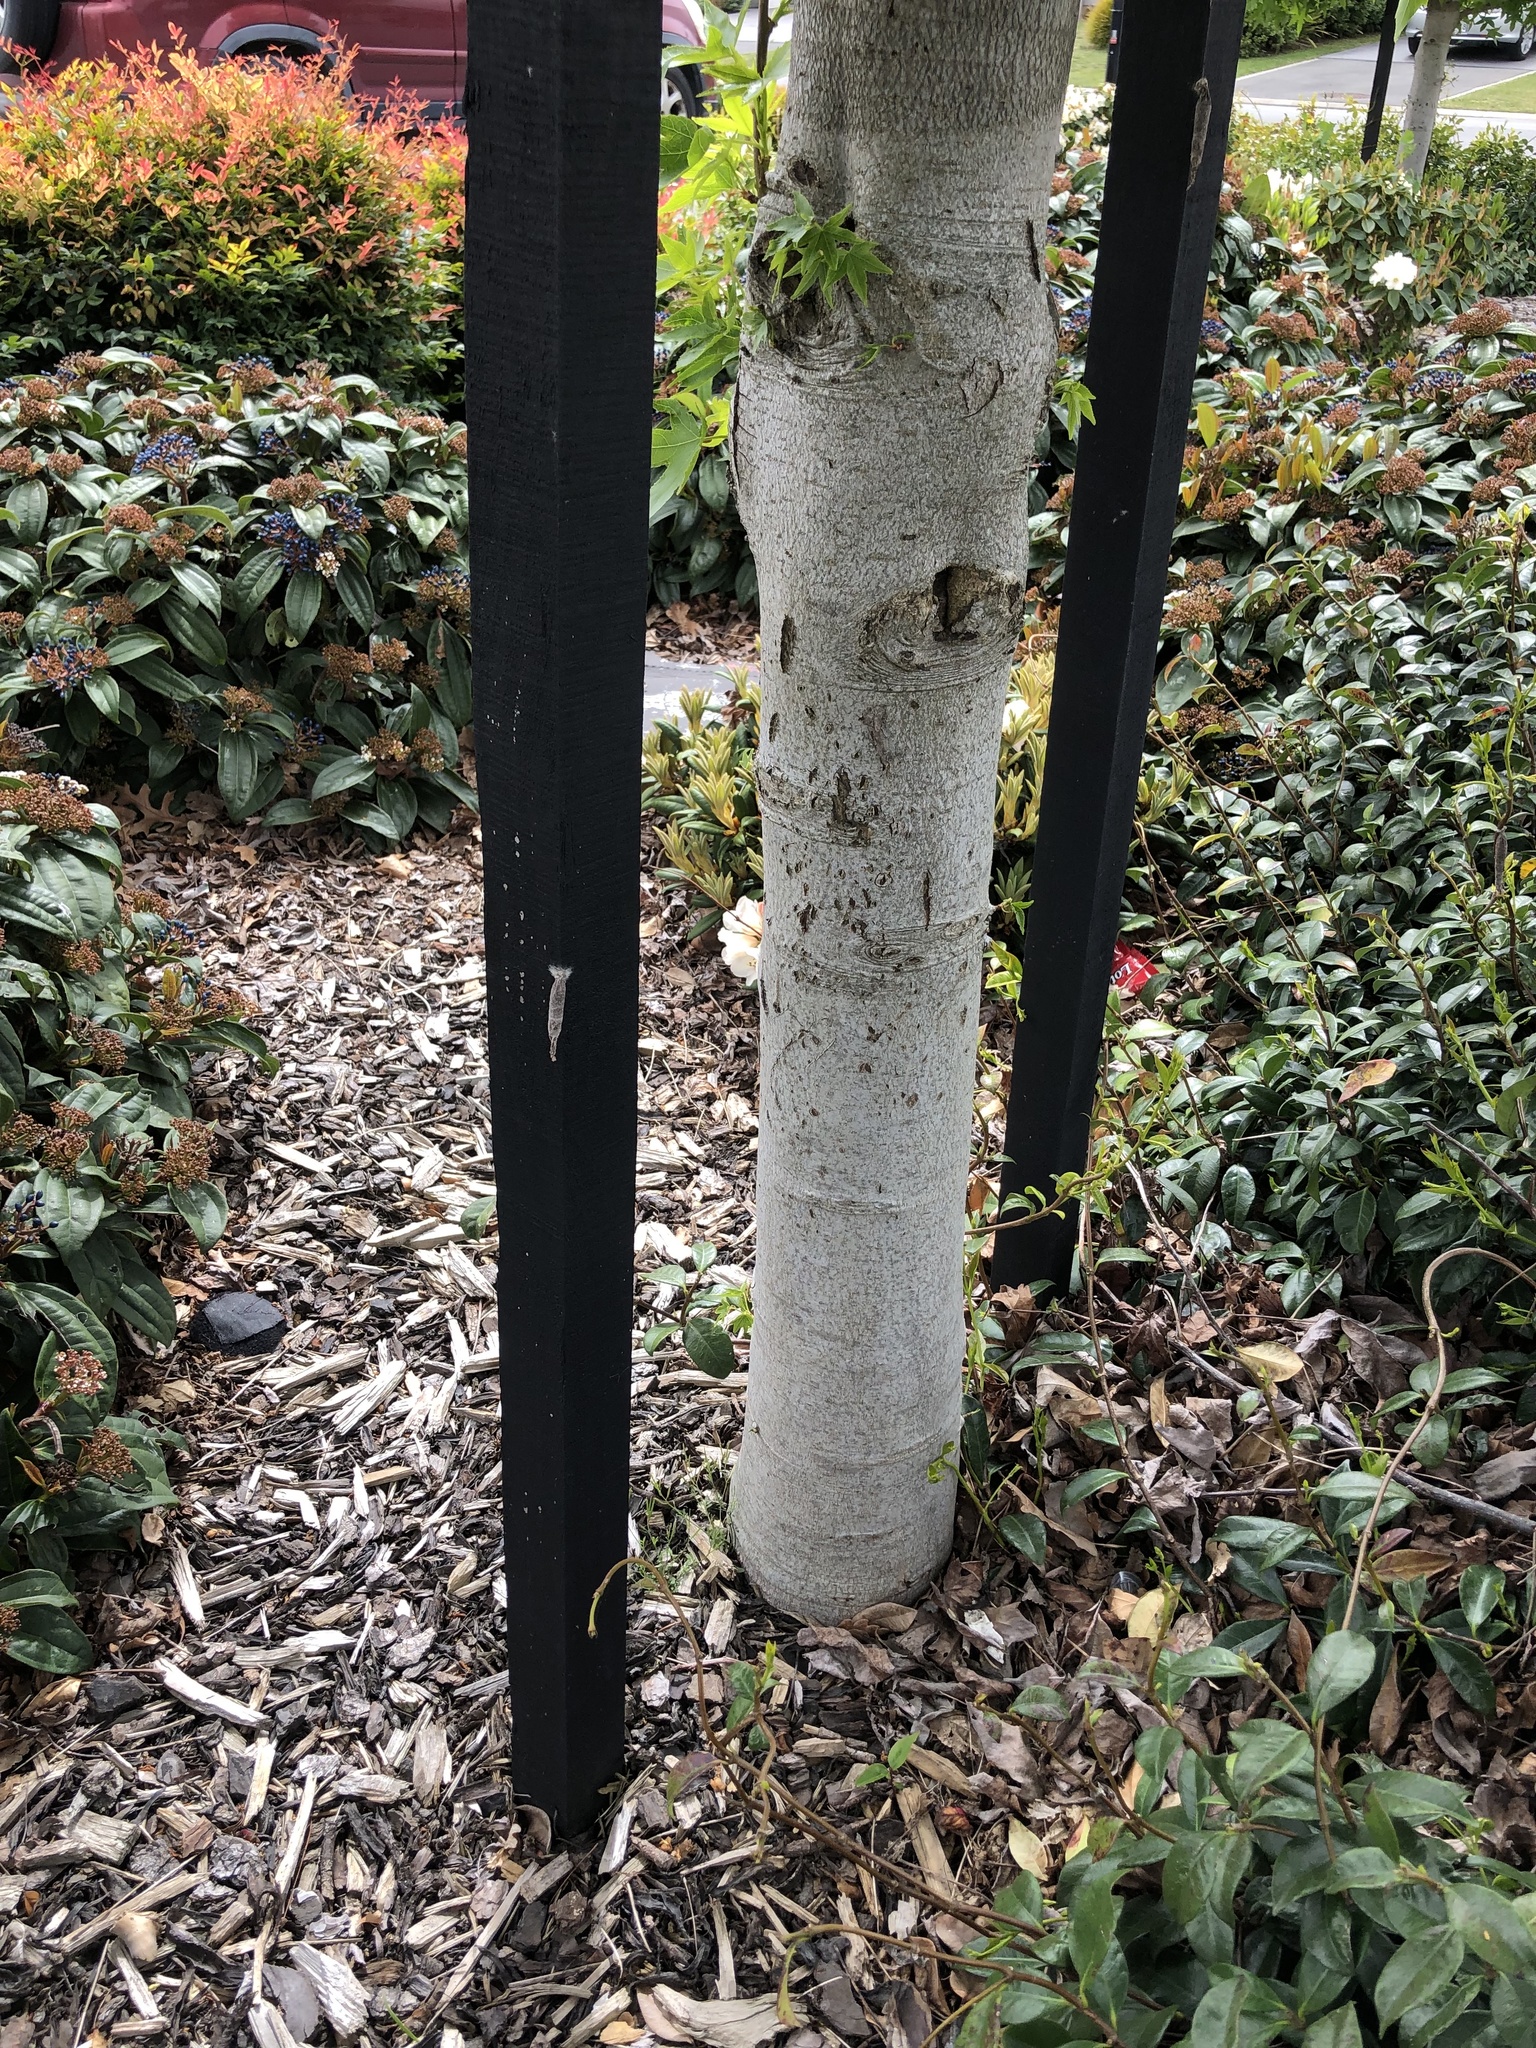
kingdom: Animalia
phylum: Arthropoda
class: Insecta
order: Lepidoptera
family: Psychidae
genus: Liothula
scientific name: Liothula omnivora
